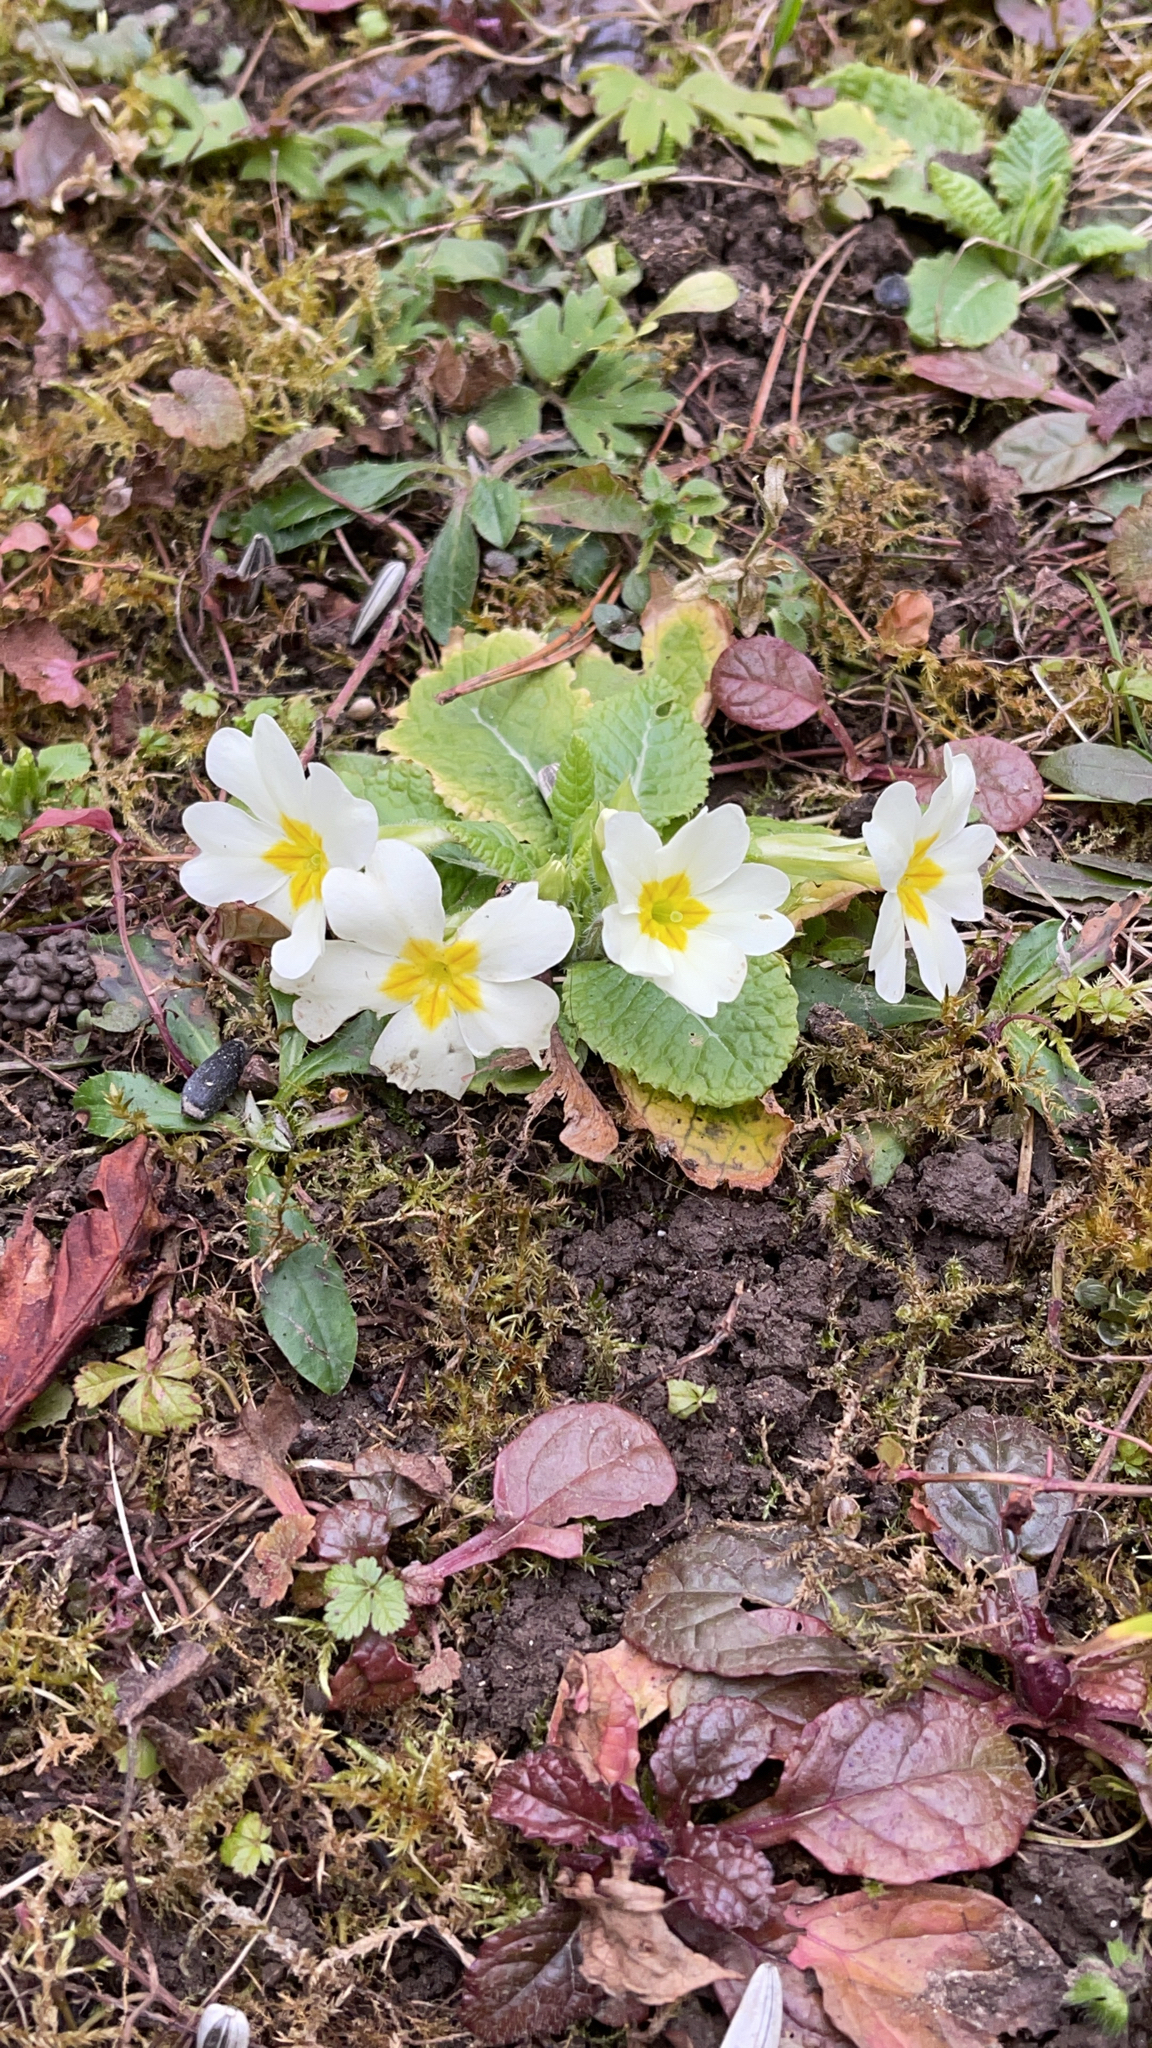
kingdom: Plantae
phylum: Tracheophyta
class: Magnoliopsida
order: Ericales
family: Primulaceae
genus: Primula
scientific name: Primula vulgaris
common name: Primrose
